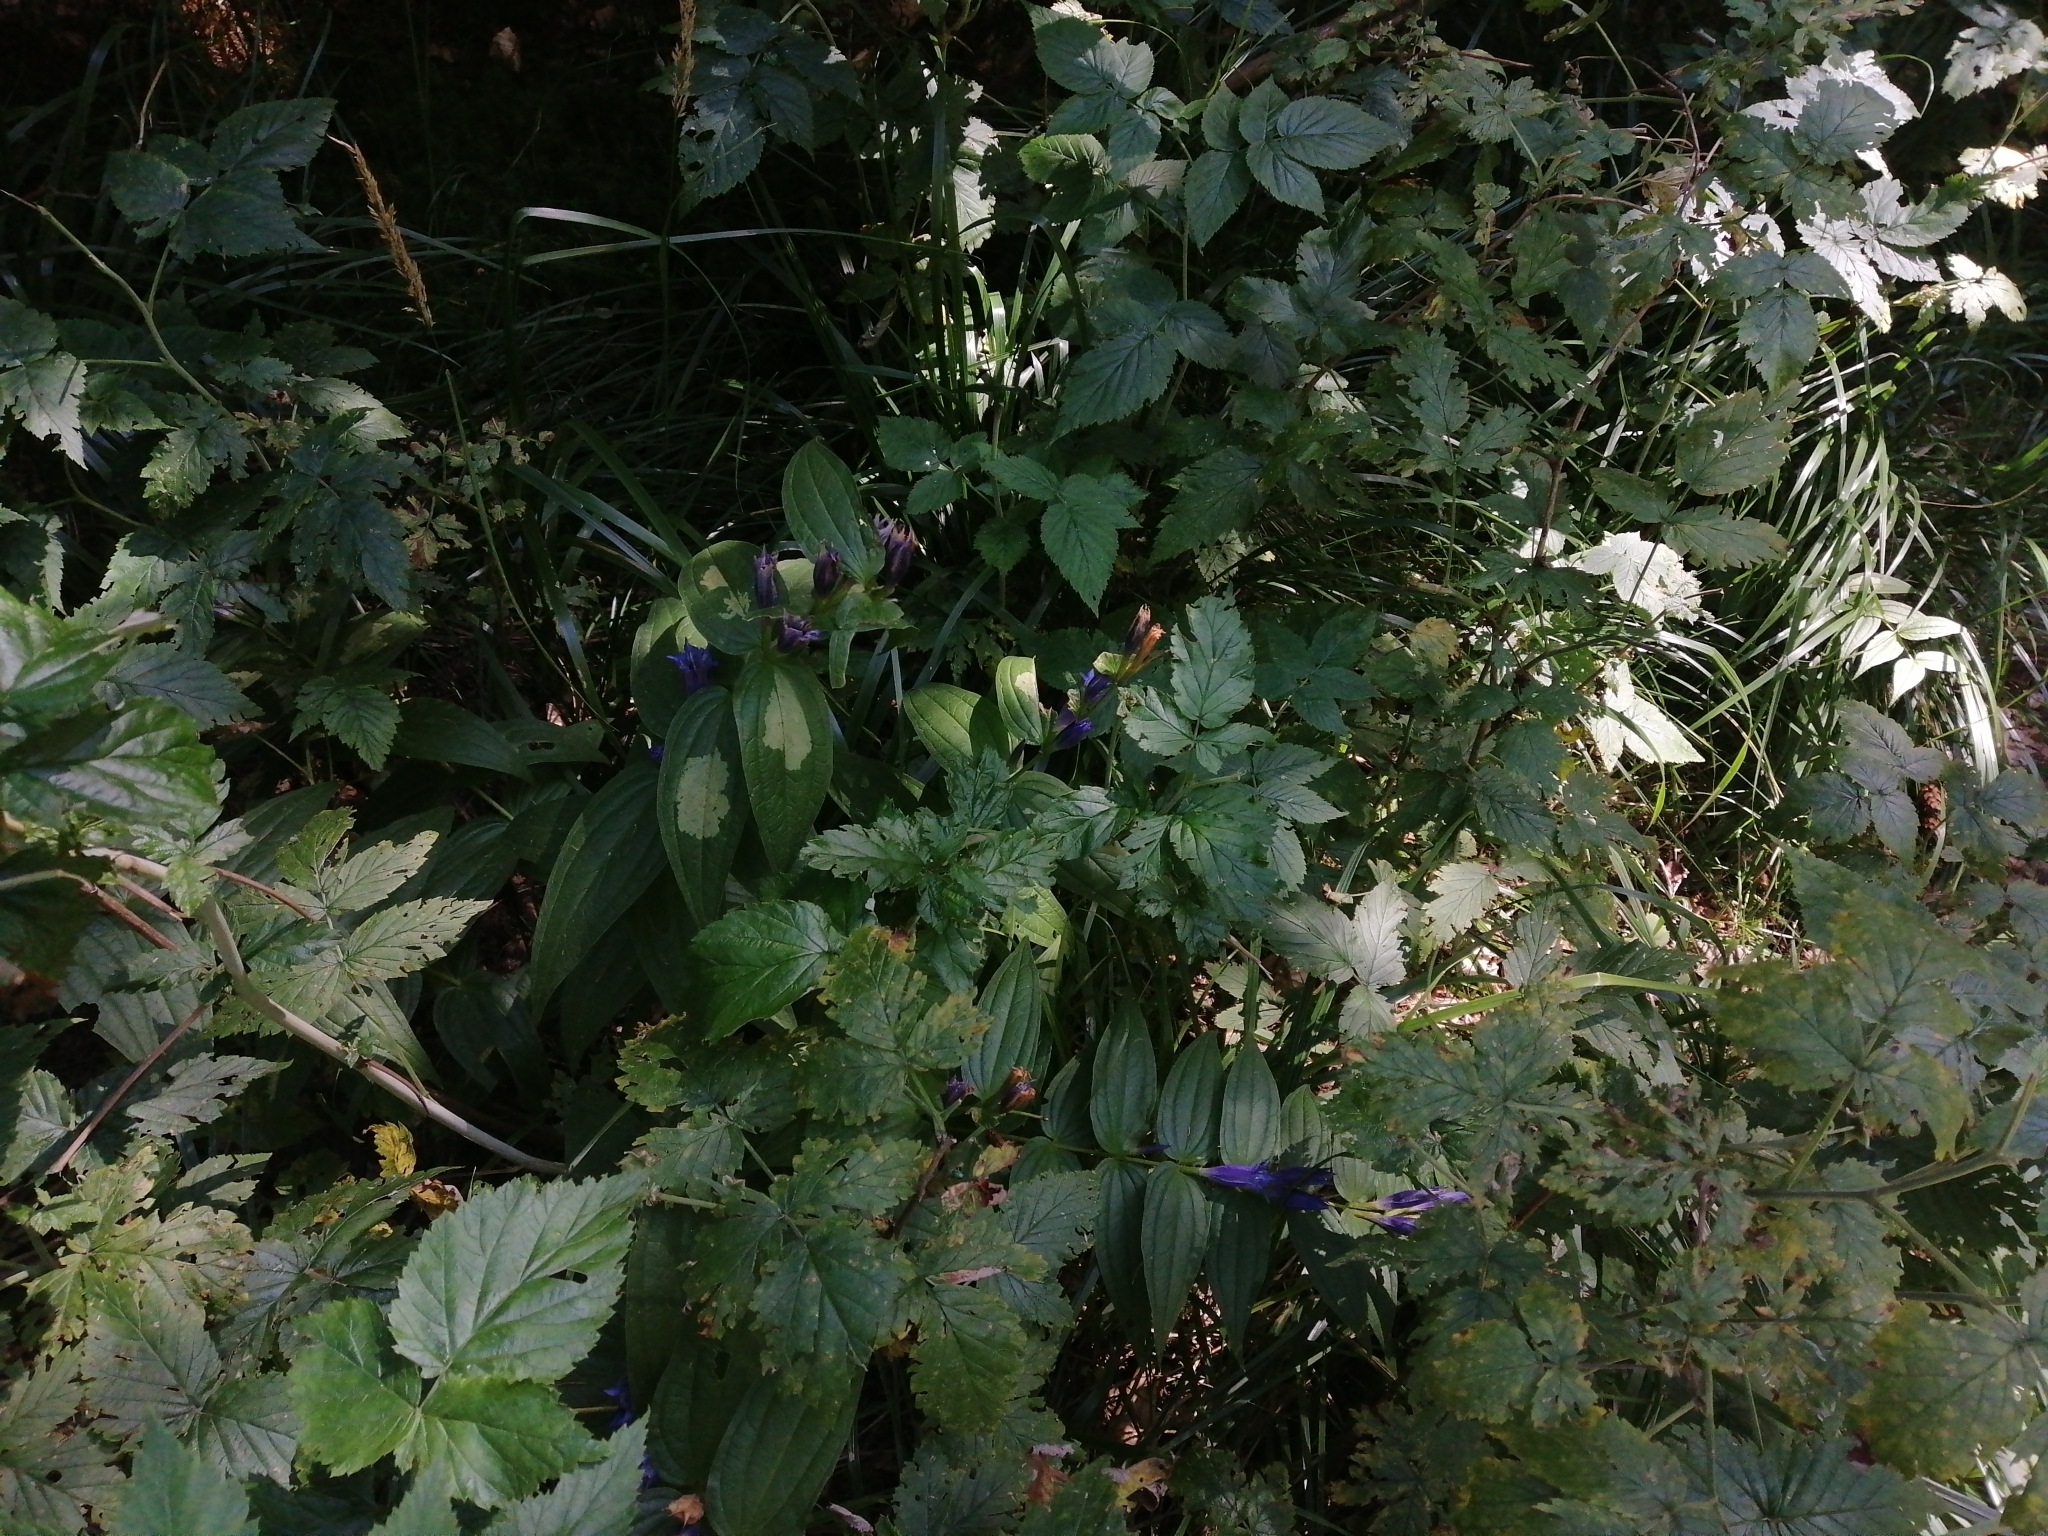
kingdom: Plantae
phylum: Tracheophyta
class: Magnoliopsida
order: Gentianales
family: Gentianaceae
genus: Gentiana
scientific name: Gentiana asclepiadea
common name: Willow gentian
